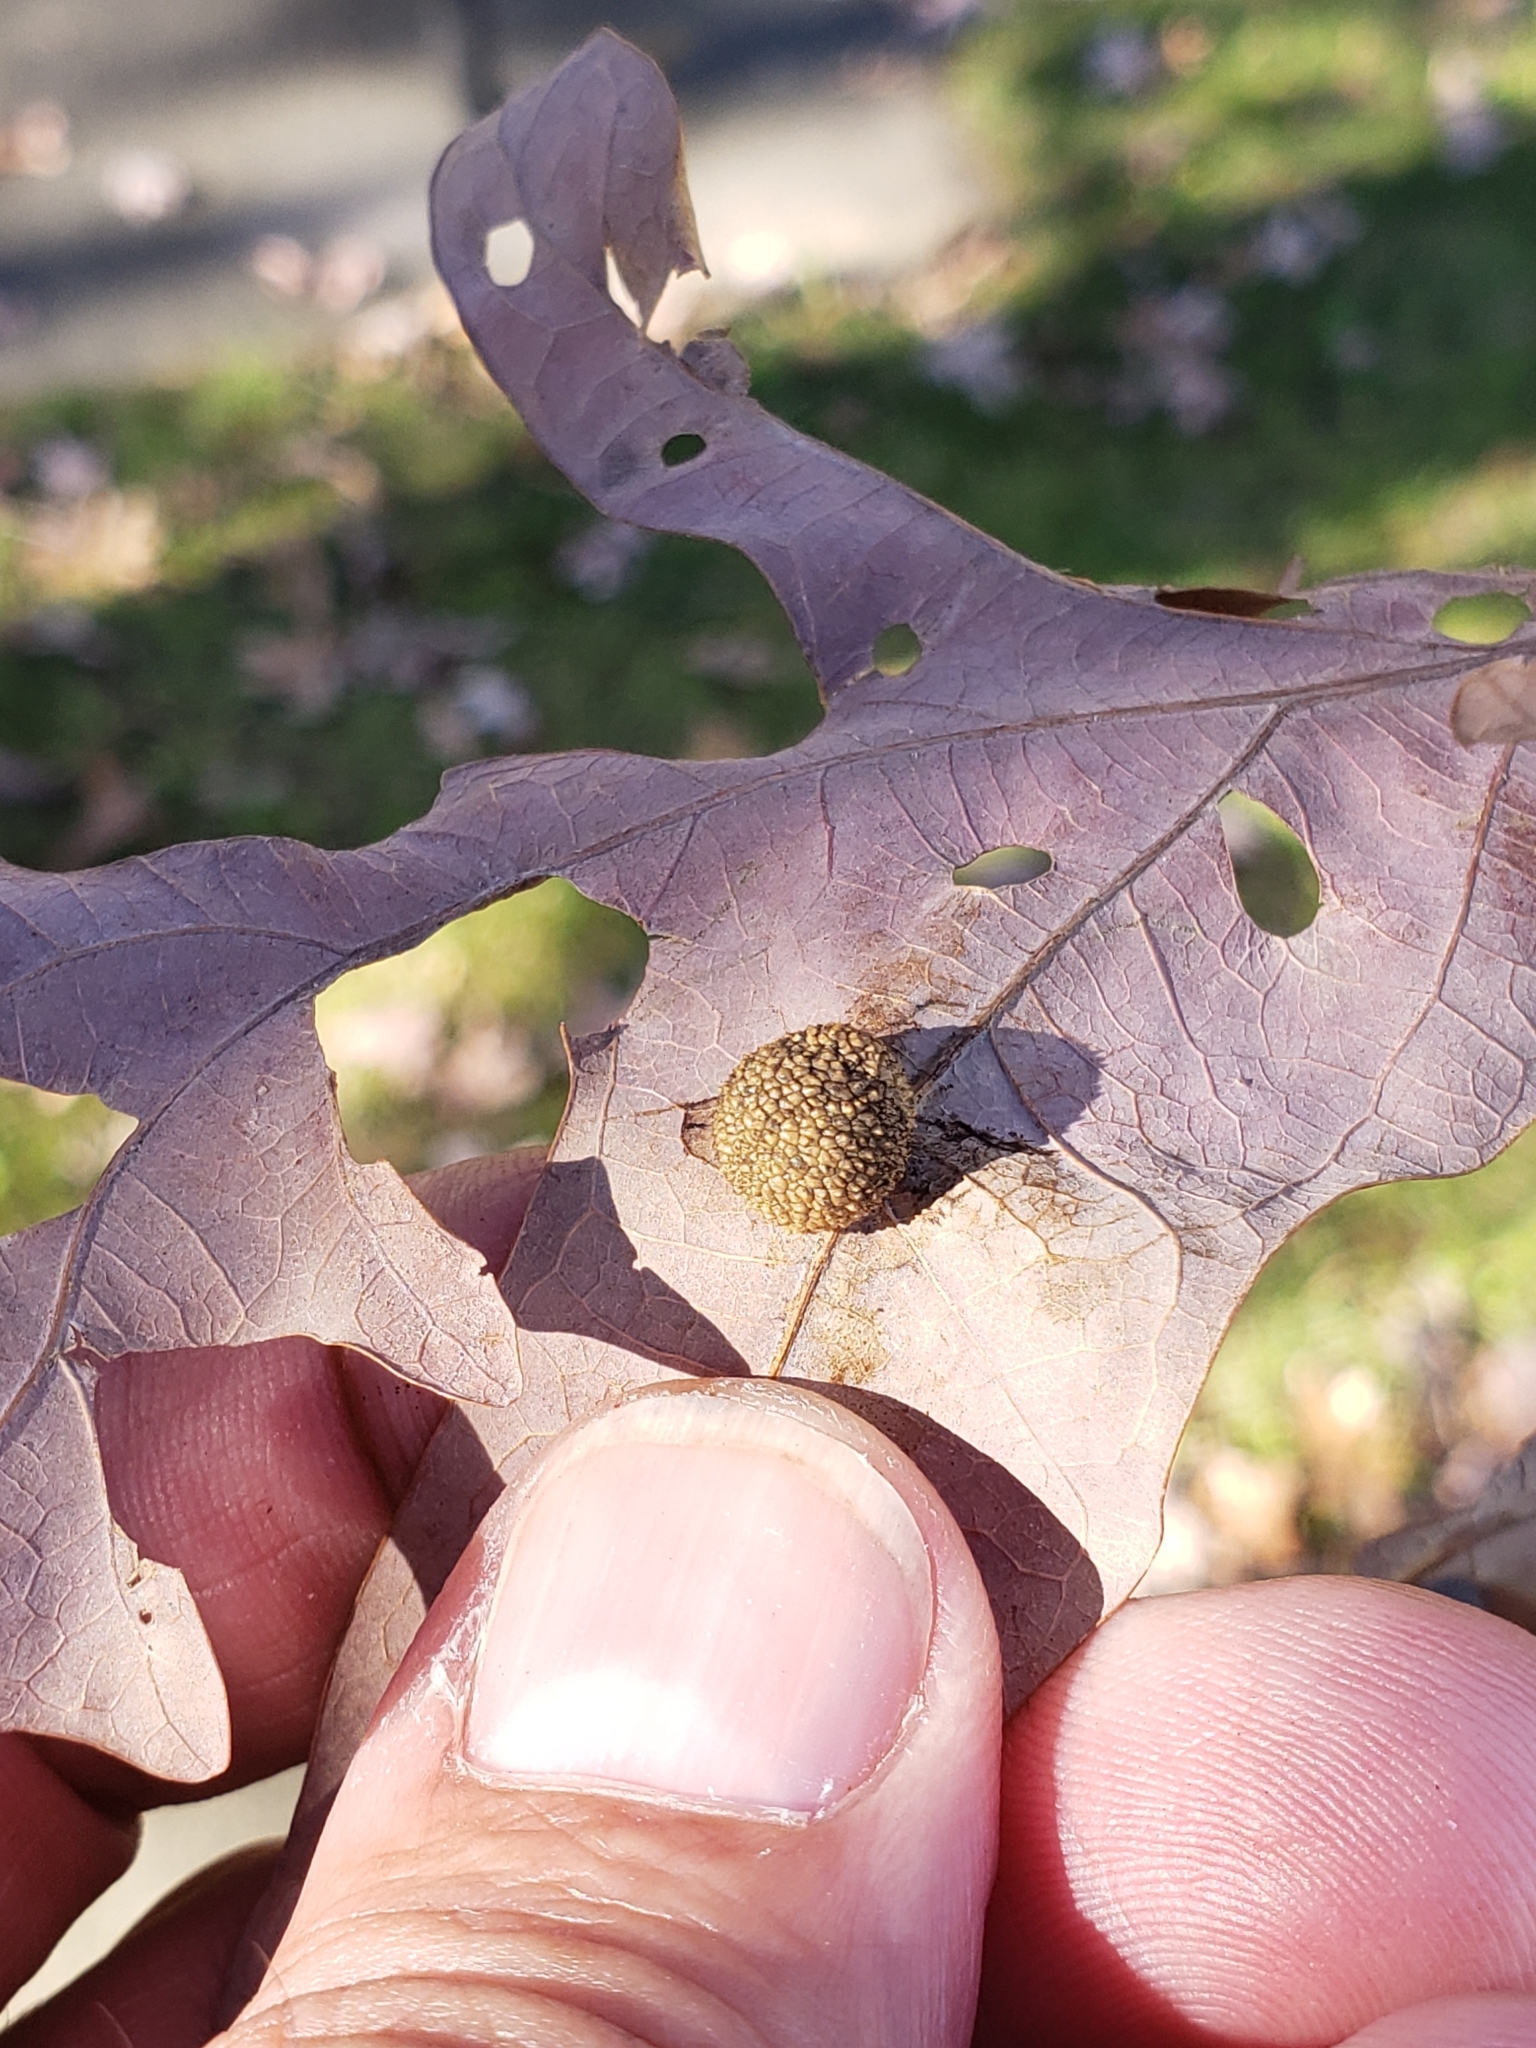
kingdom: Animalia
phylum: Arthropoda
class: Insecta
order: Hymenoptera
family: Cynipidae
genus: Acraspis
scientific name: Acraspis
